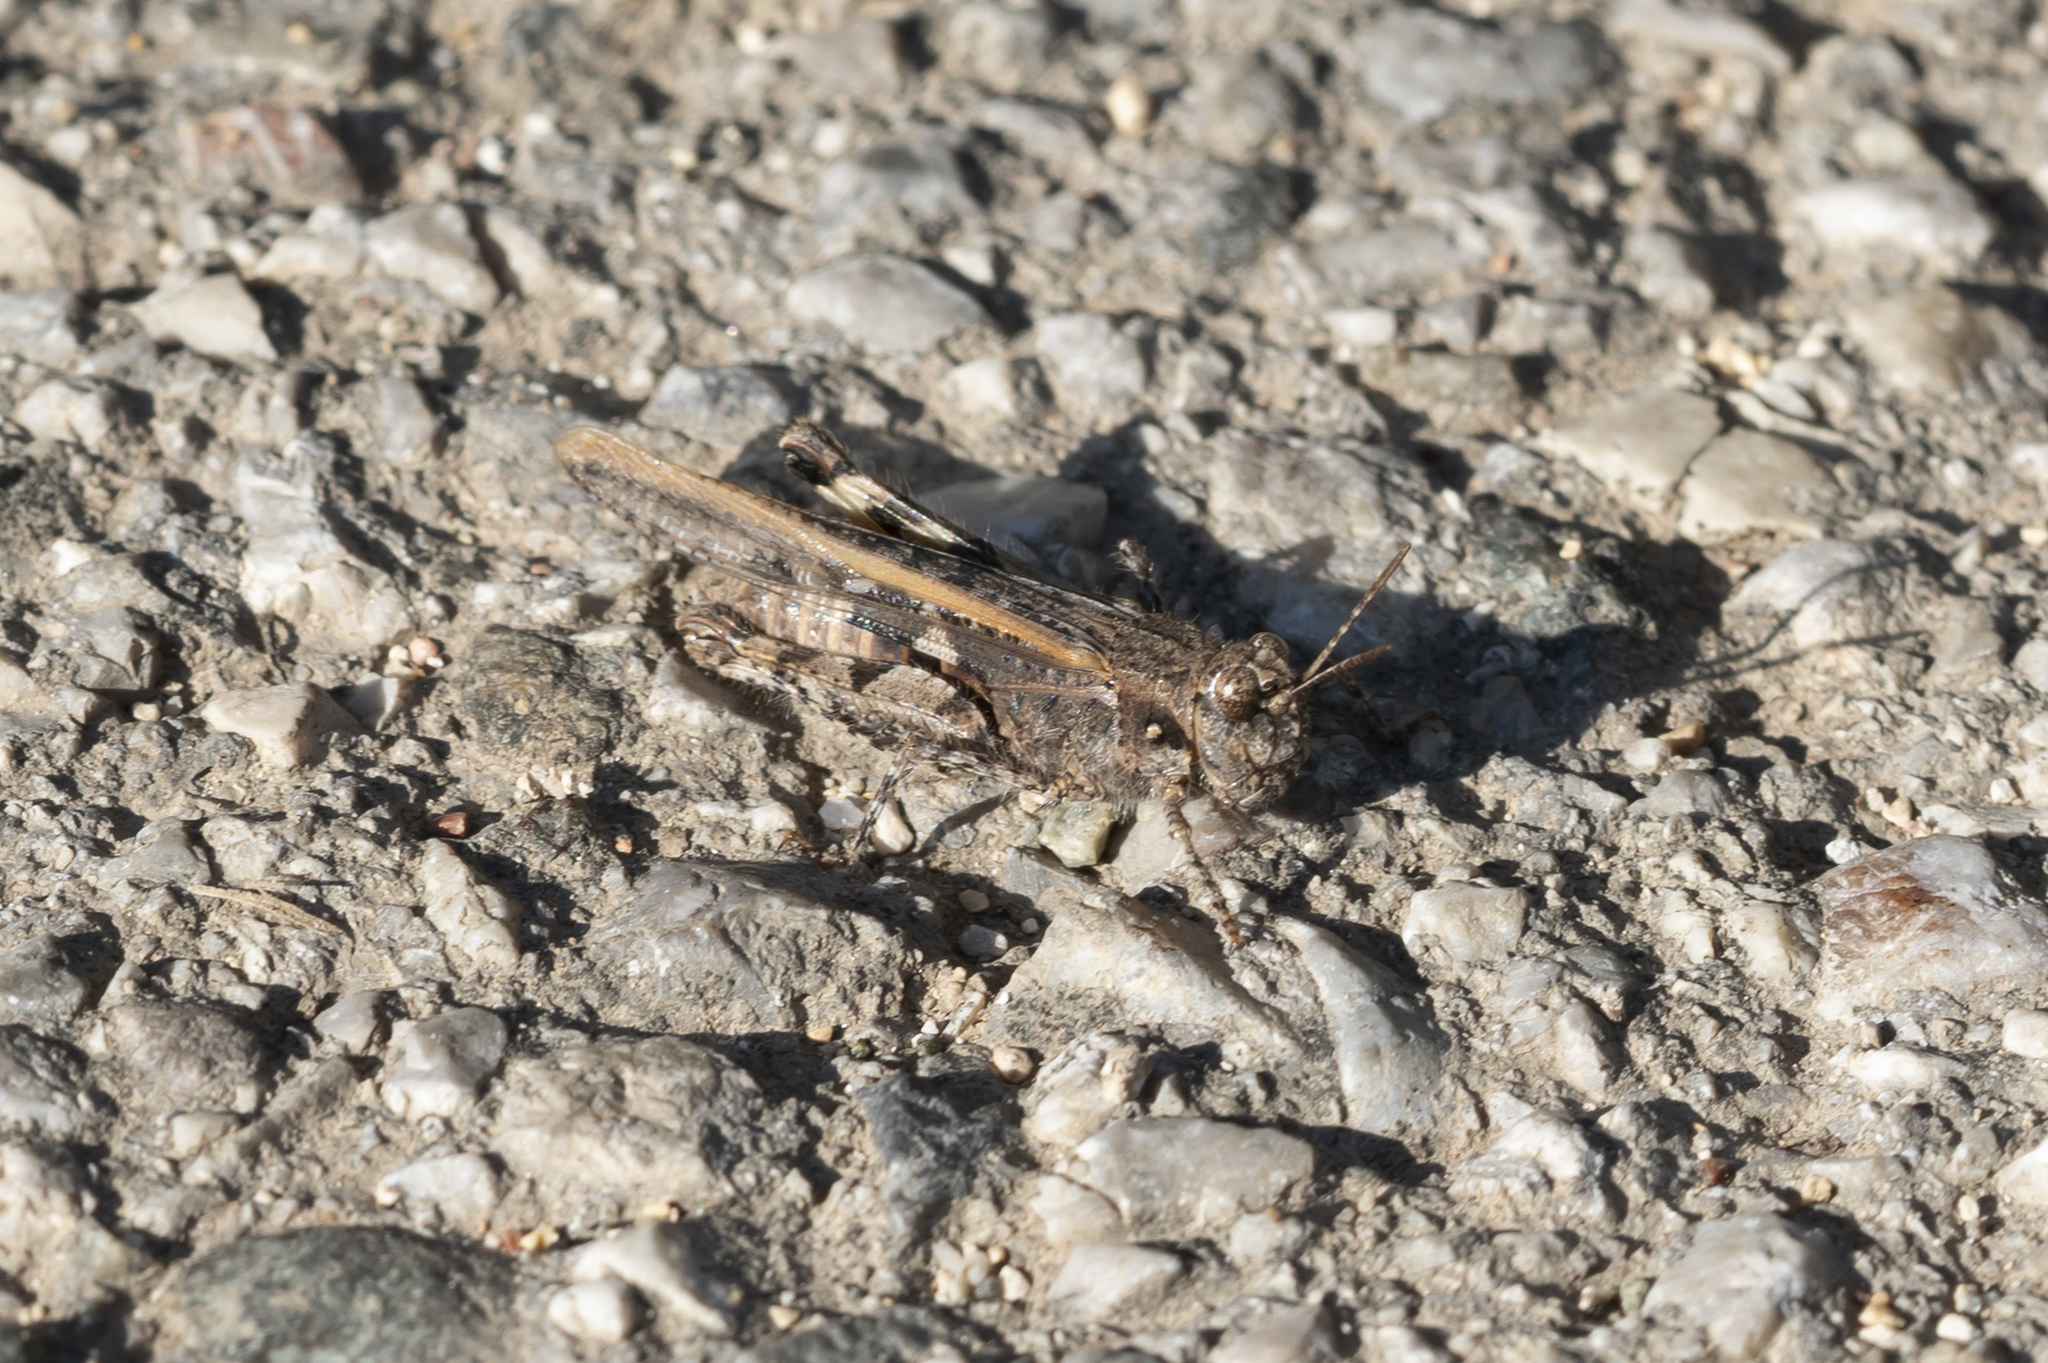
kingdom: Animalia
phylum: Arthropoda
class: Insecta
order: Orthoptera
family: Acrididae
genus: Acrotylus
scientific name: Acrotylus insubricus
